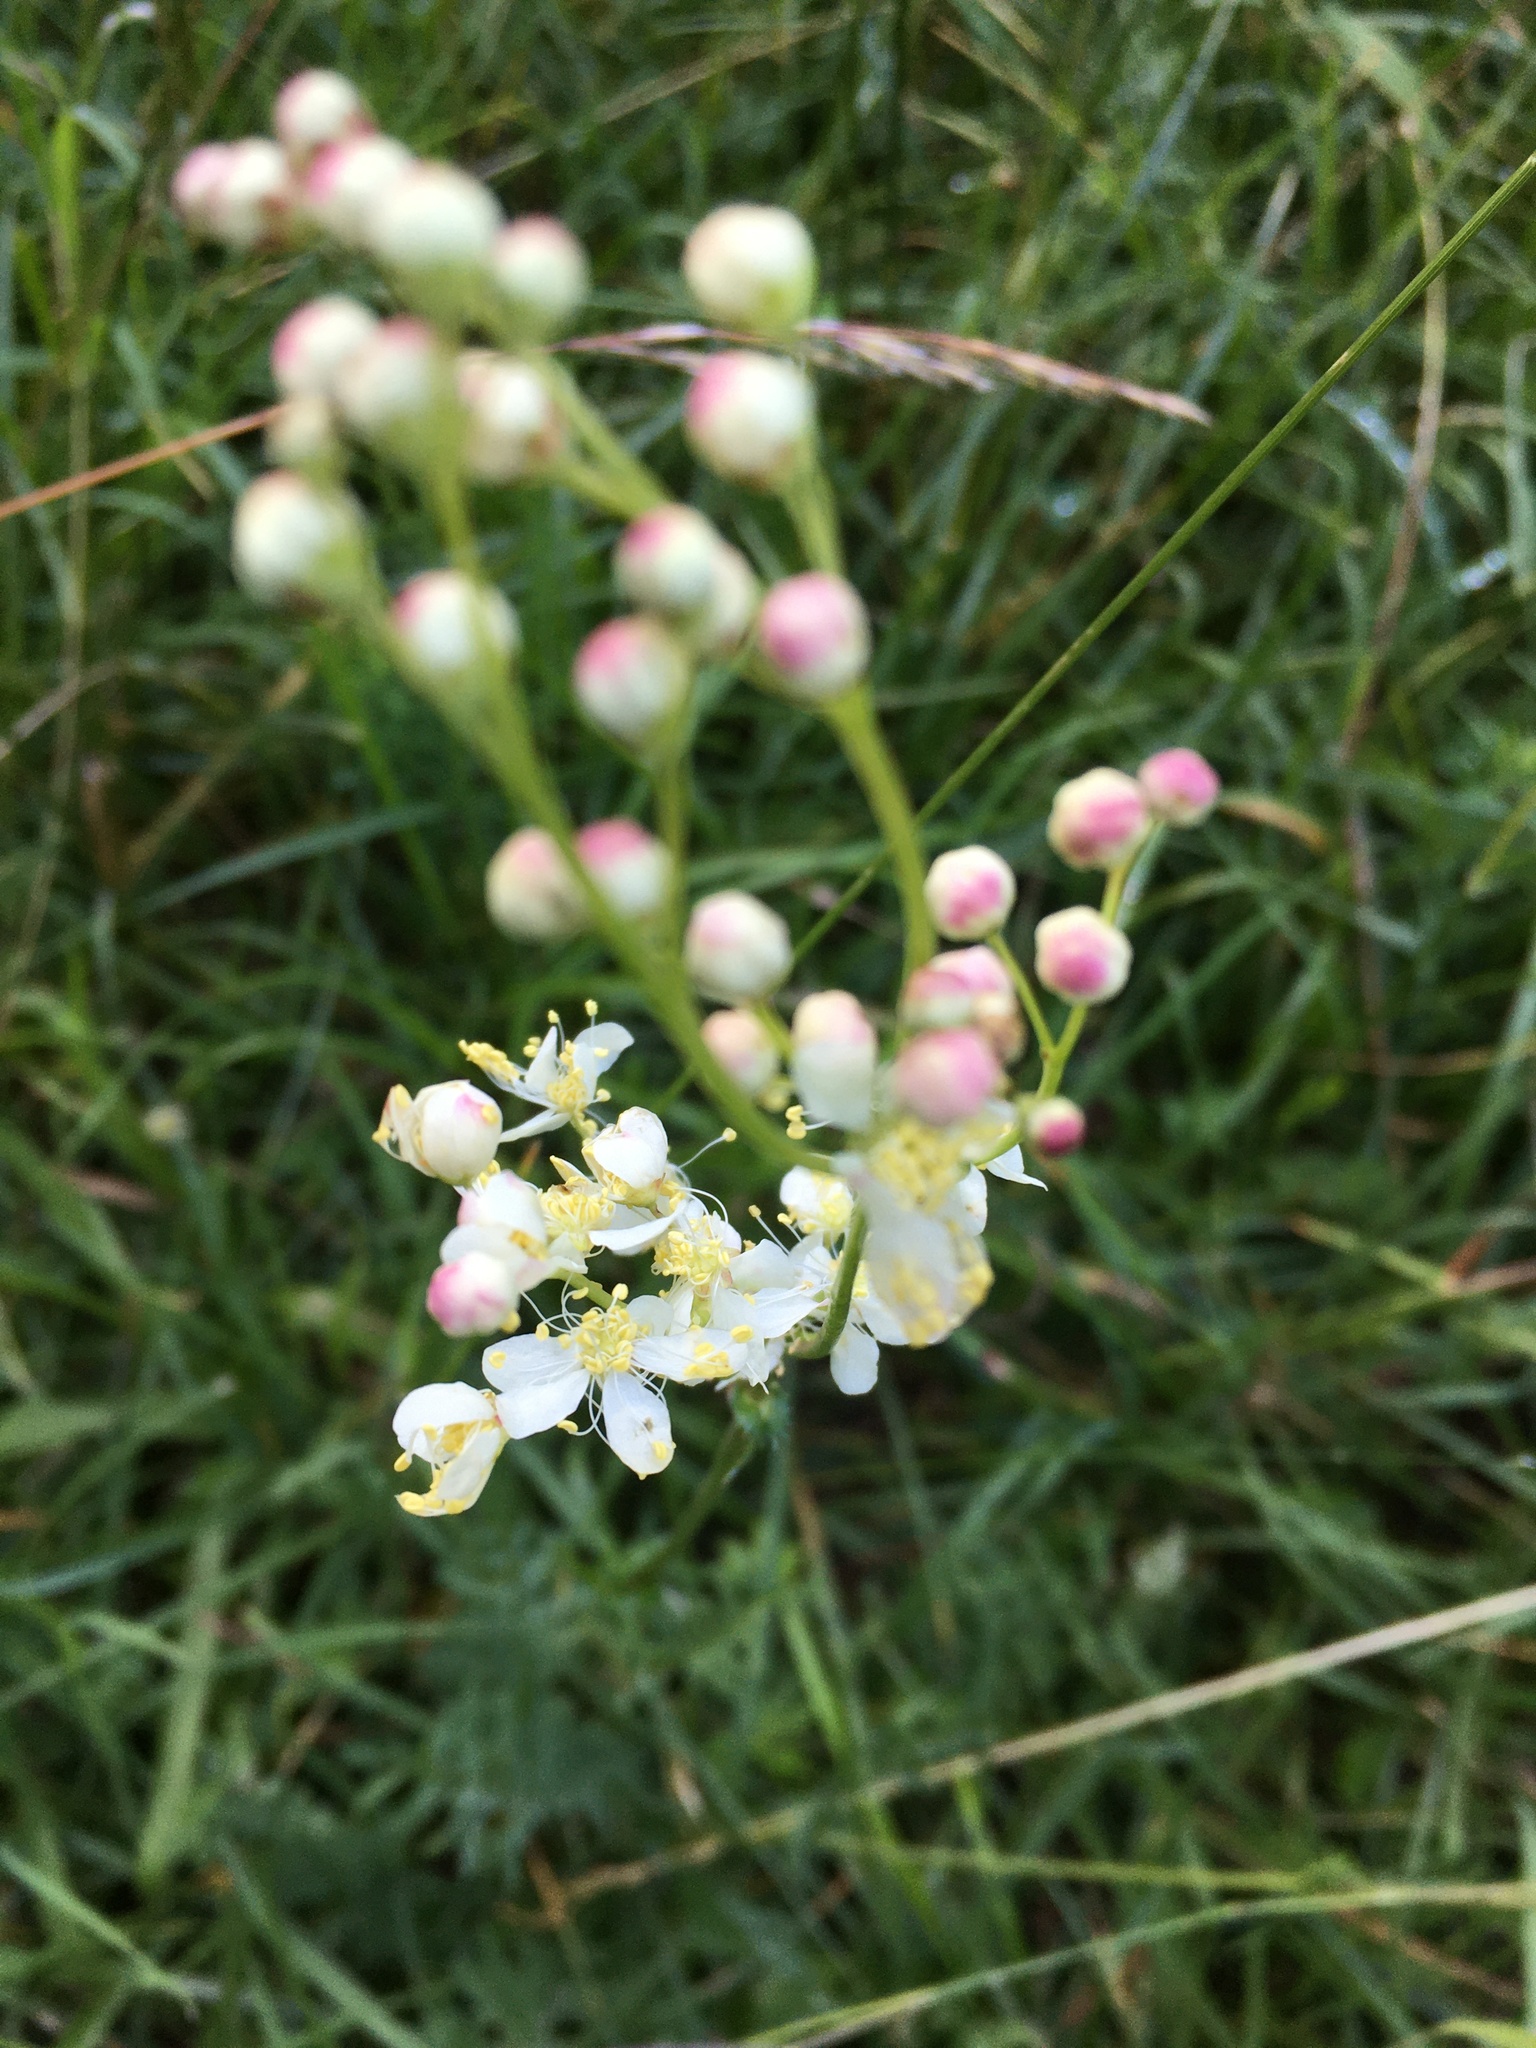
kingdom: Plantae
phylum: Tracheophyta
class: Magnoliopsida
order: Rosales
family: Rosaceae
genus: Filipendula
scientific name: Filipendula vulgaris
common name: Dropwort
